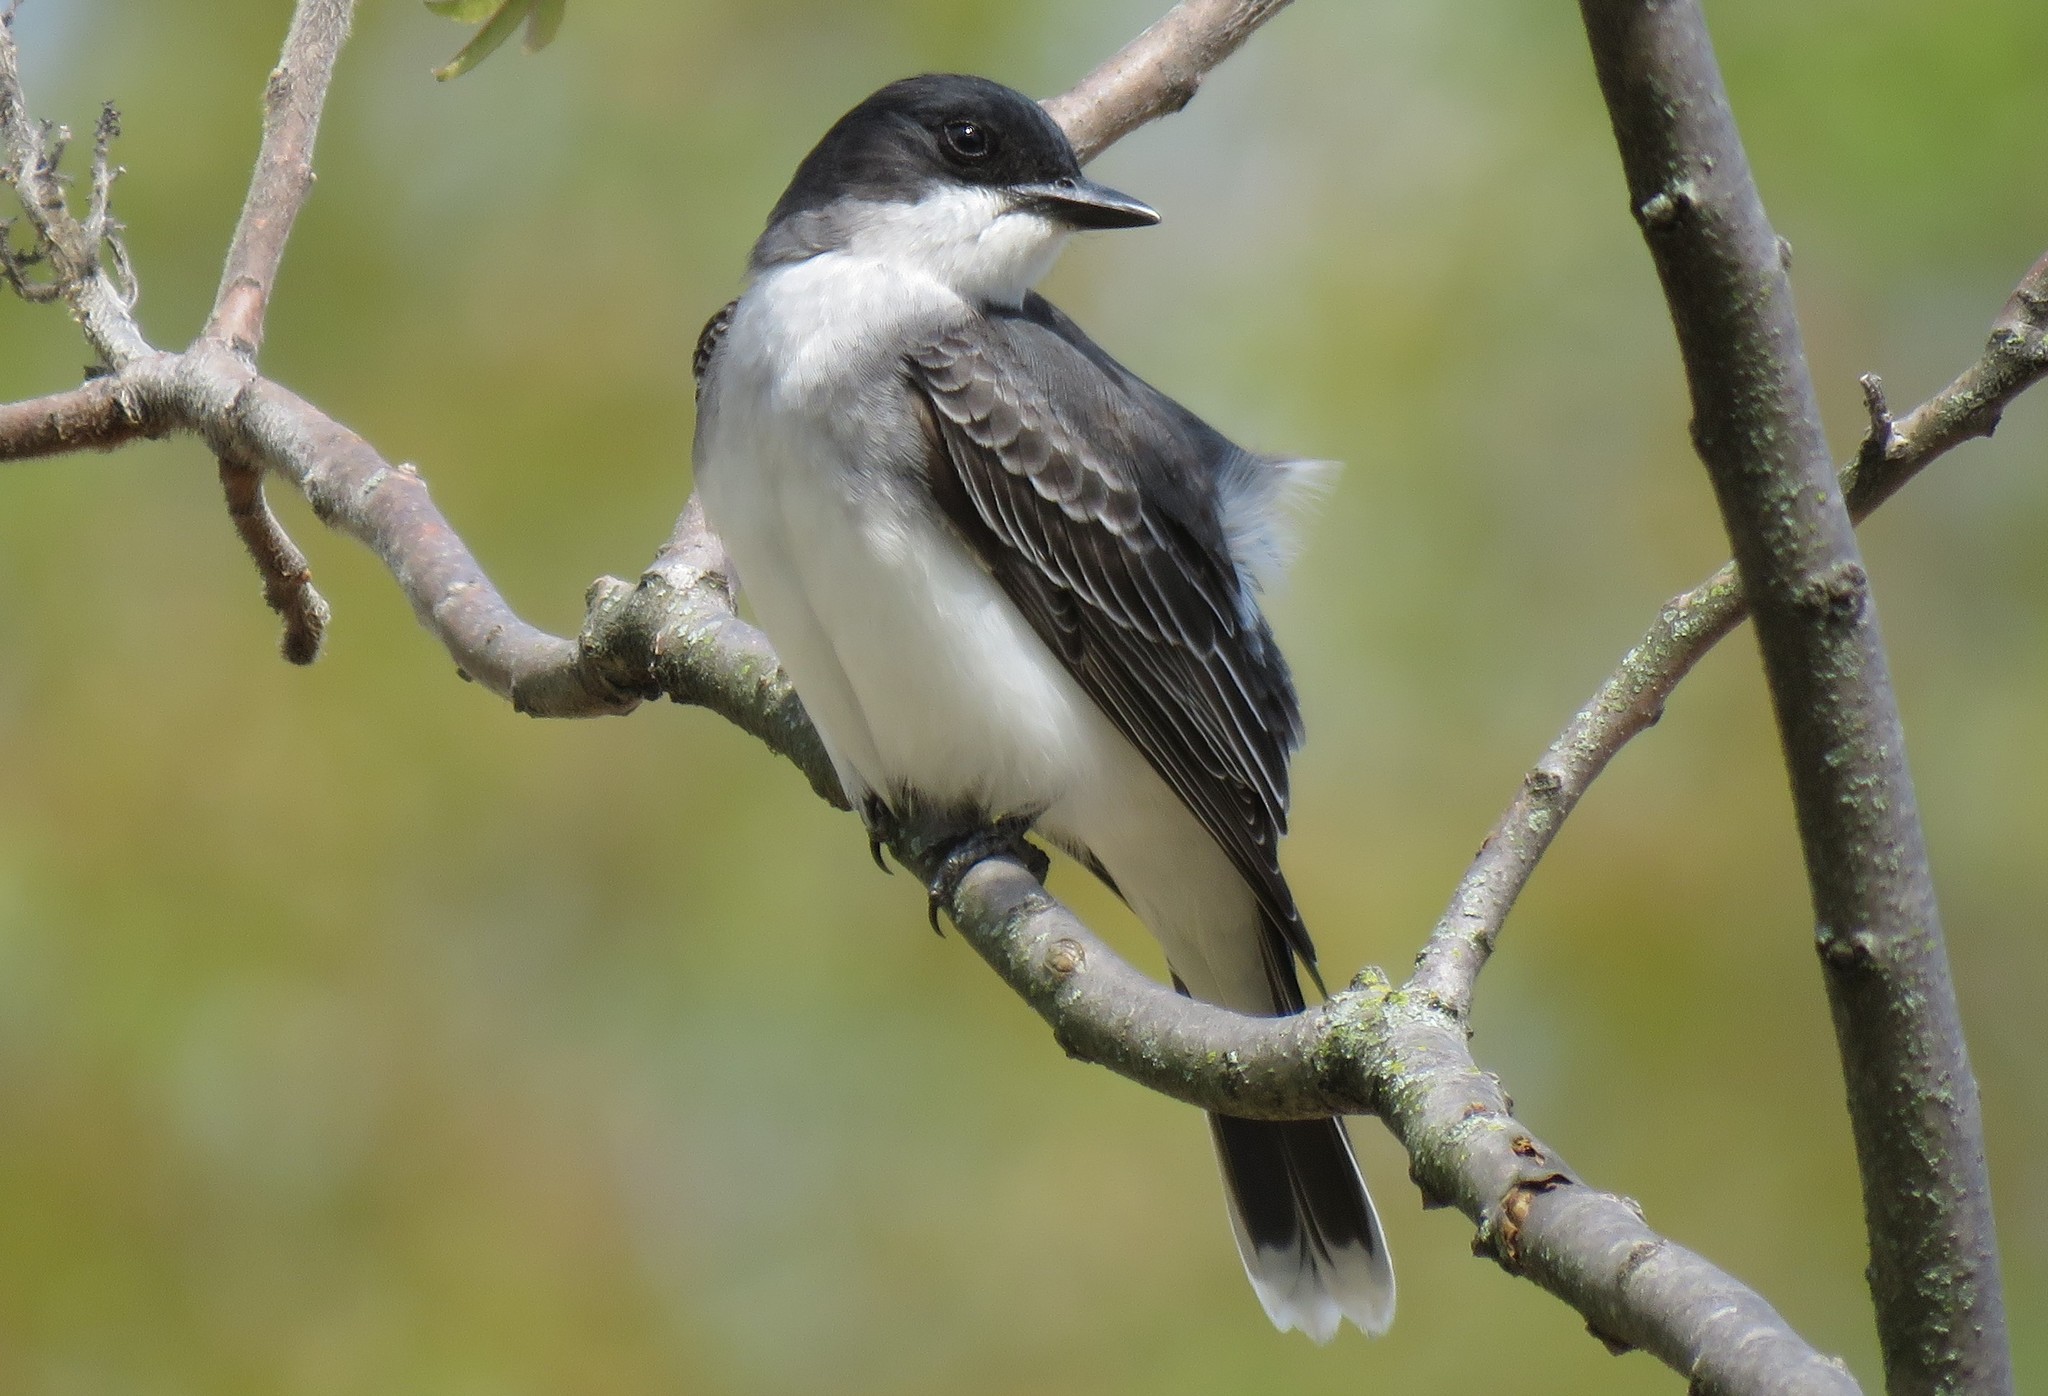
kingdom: Animalia
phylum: Chordata
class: Aves
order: Passeriformes
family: Tyrannidae
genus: Tyrannus
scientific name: Tyrannus tyrannus
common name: Eastern kingbird
